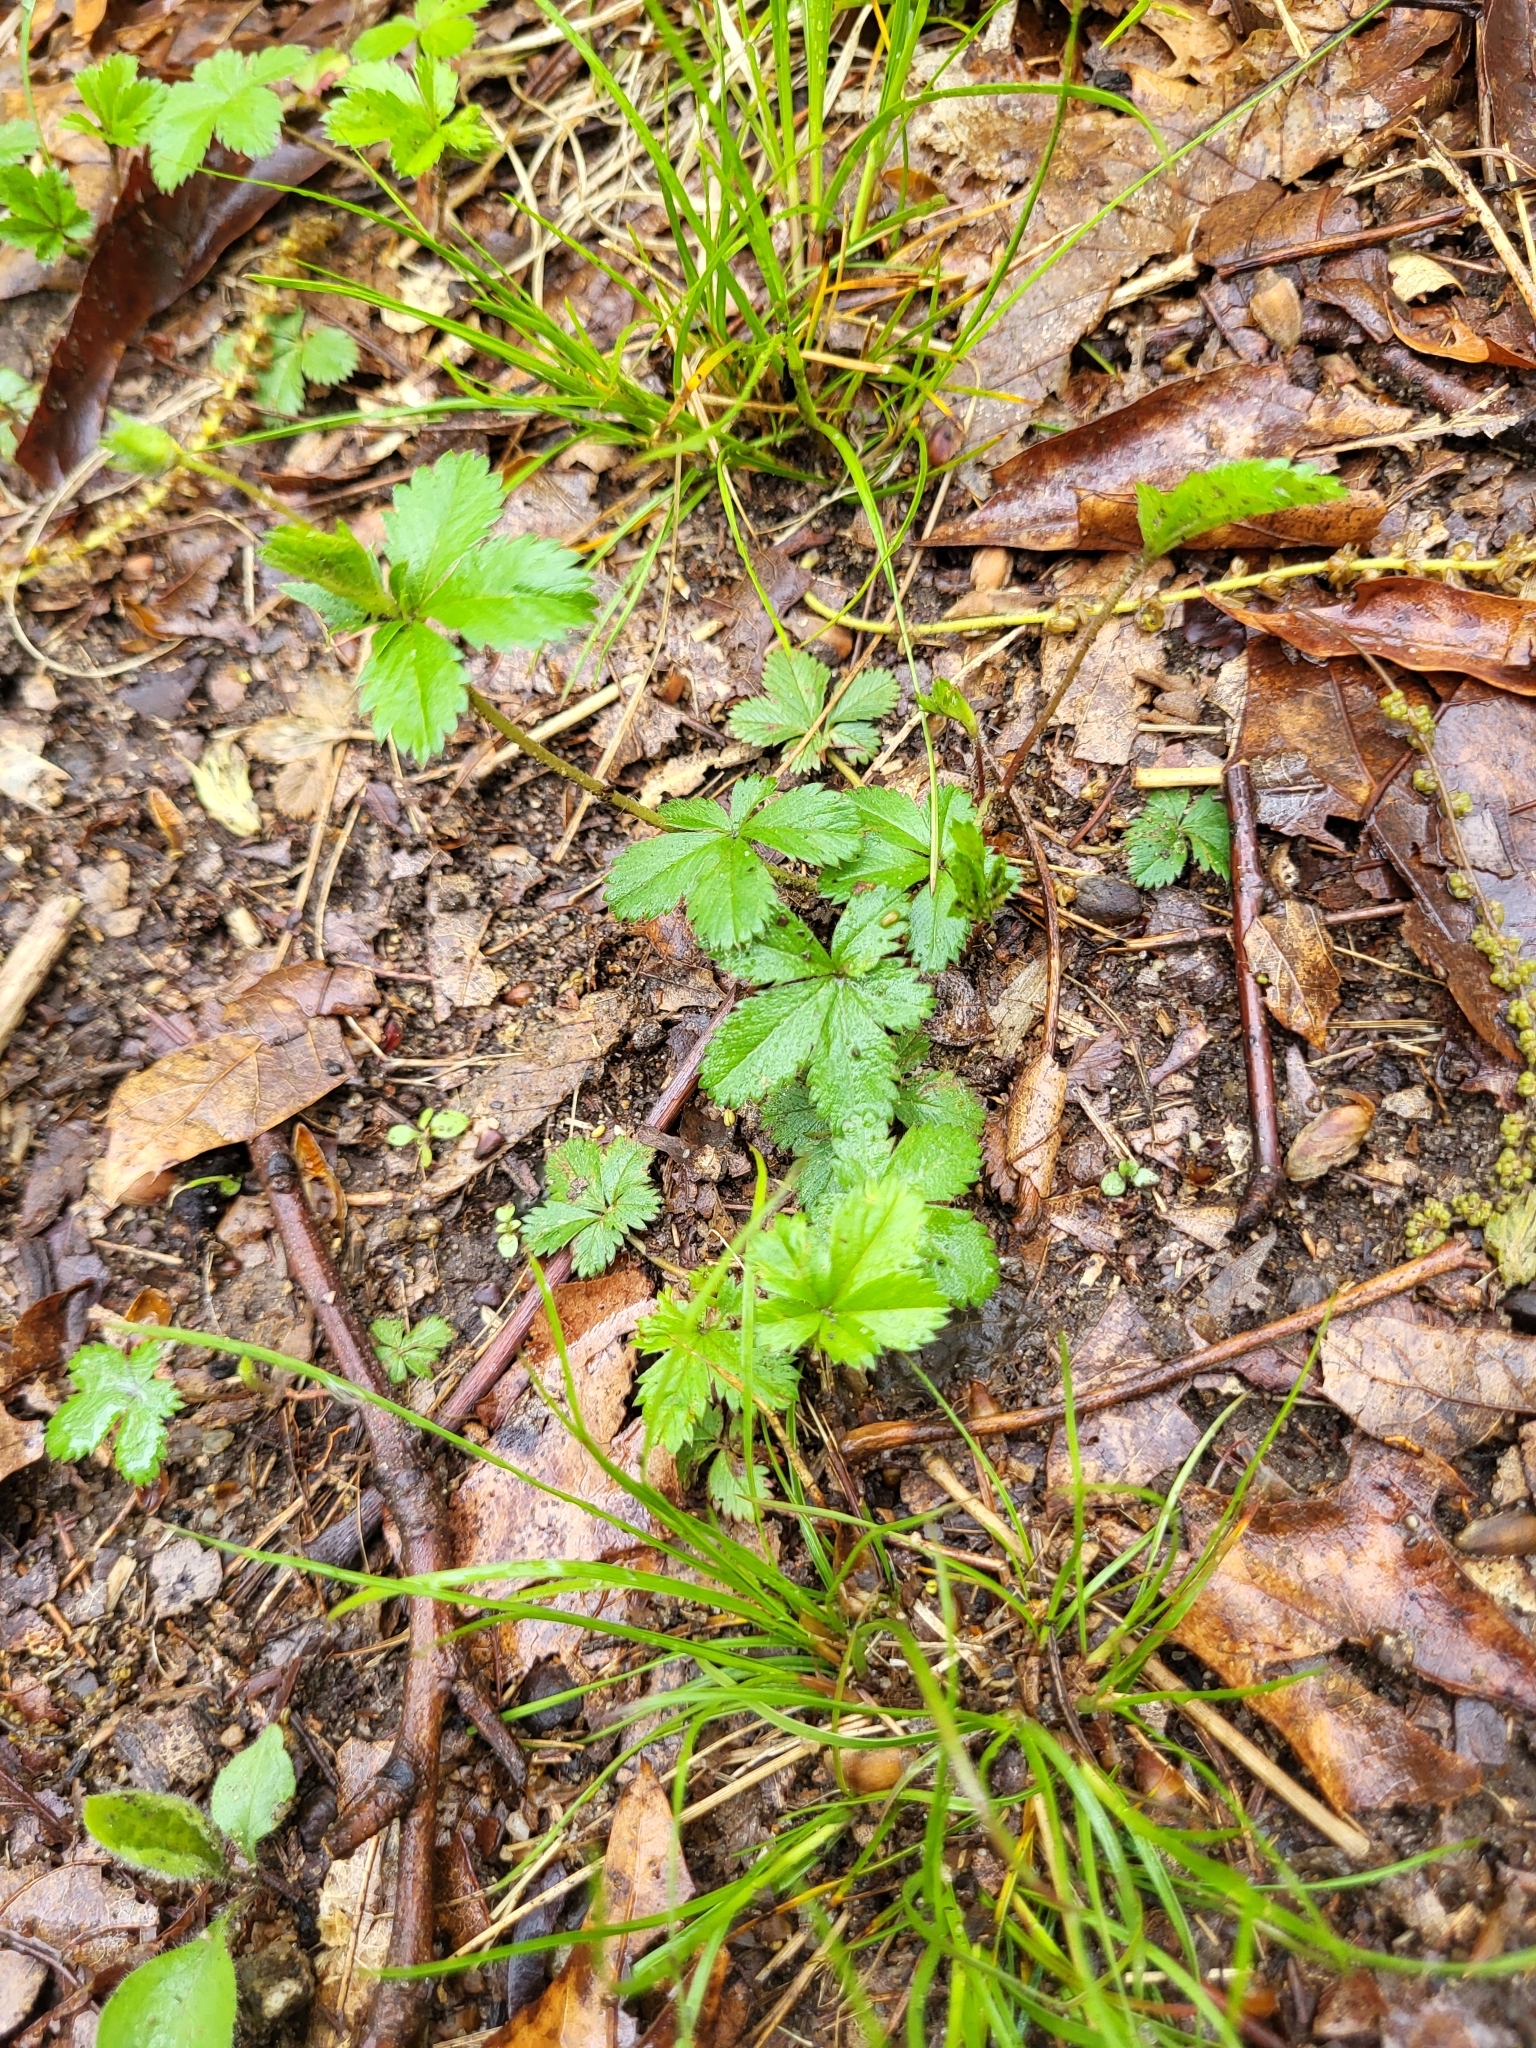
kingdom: Plantae
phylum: Tracheophyta
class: Magnoliopsida
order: Rosales
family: Rosaceae
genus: Potentilla
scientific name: Potentilla canadensis
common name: Canada cinquefoil
